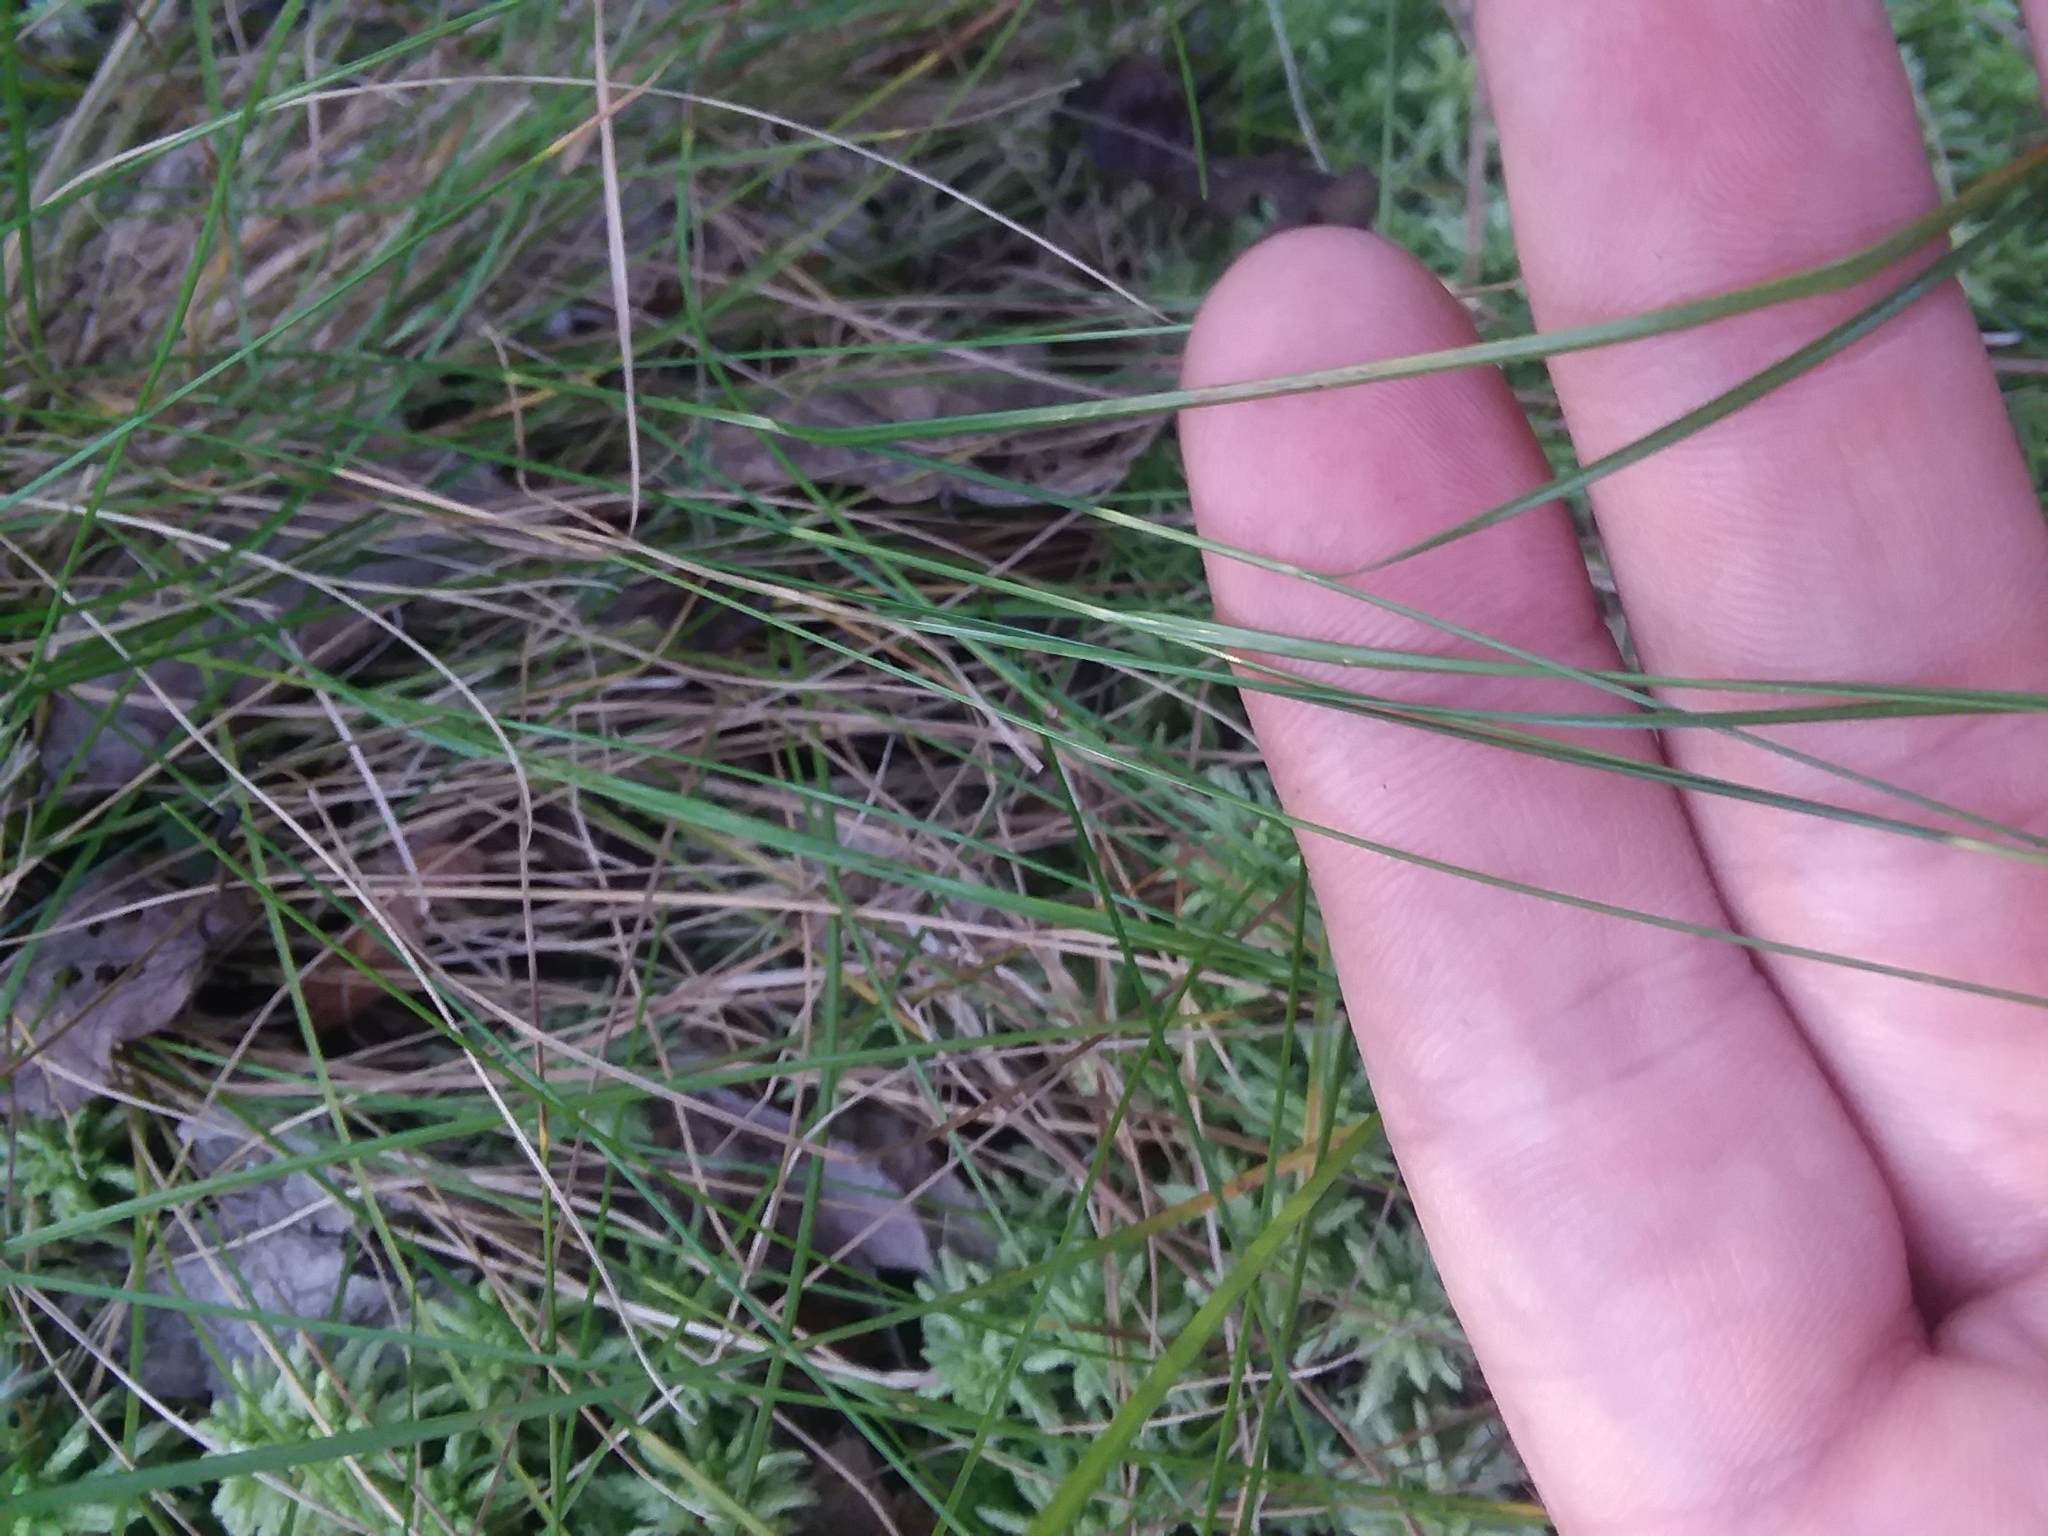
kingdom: Plantae
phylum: Tracheophyta
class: Liliopsida
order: Poales
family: Cyperaceae
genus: Rhynchospora
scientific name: Rhynchospora gracilenta
